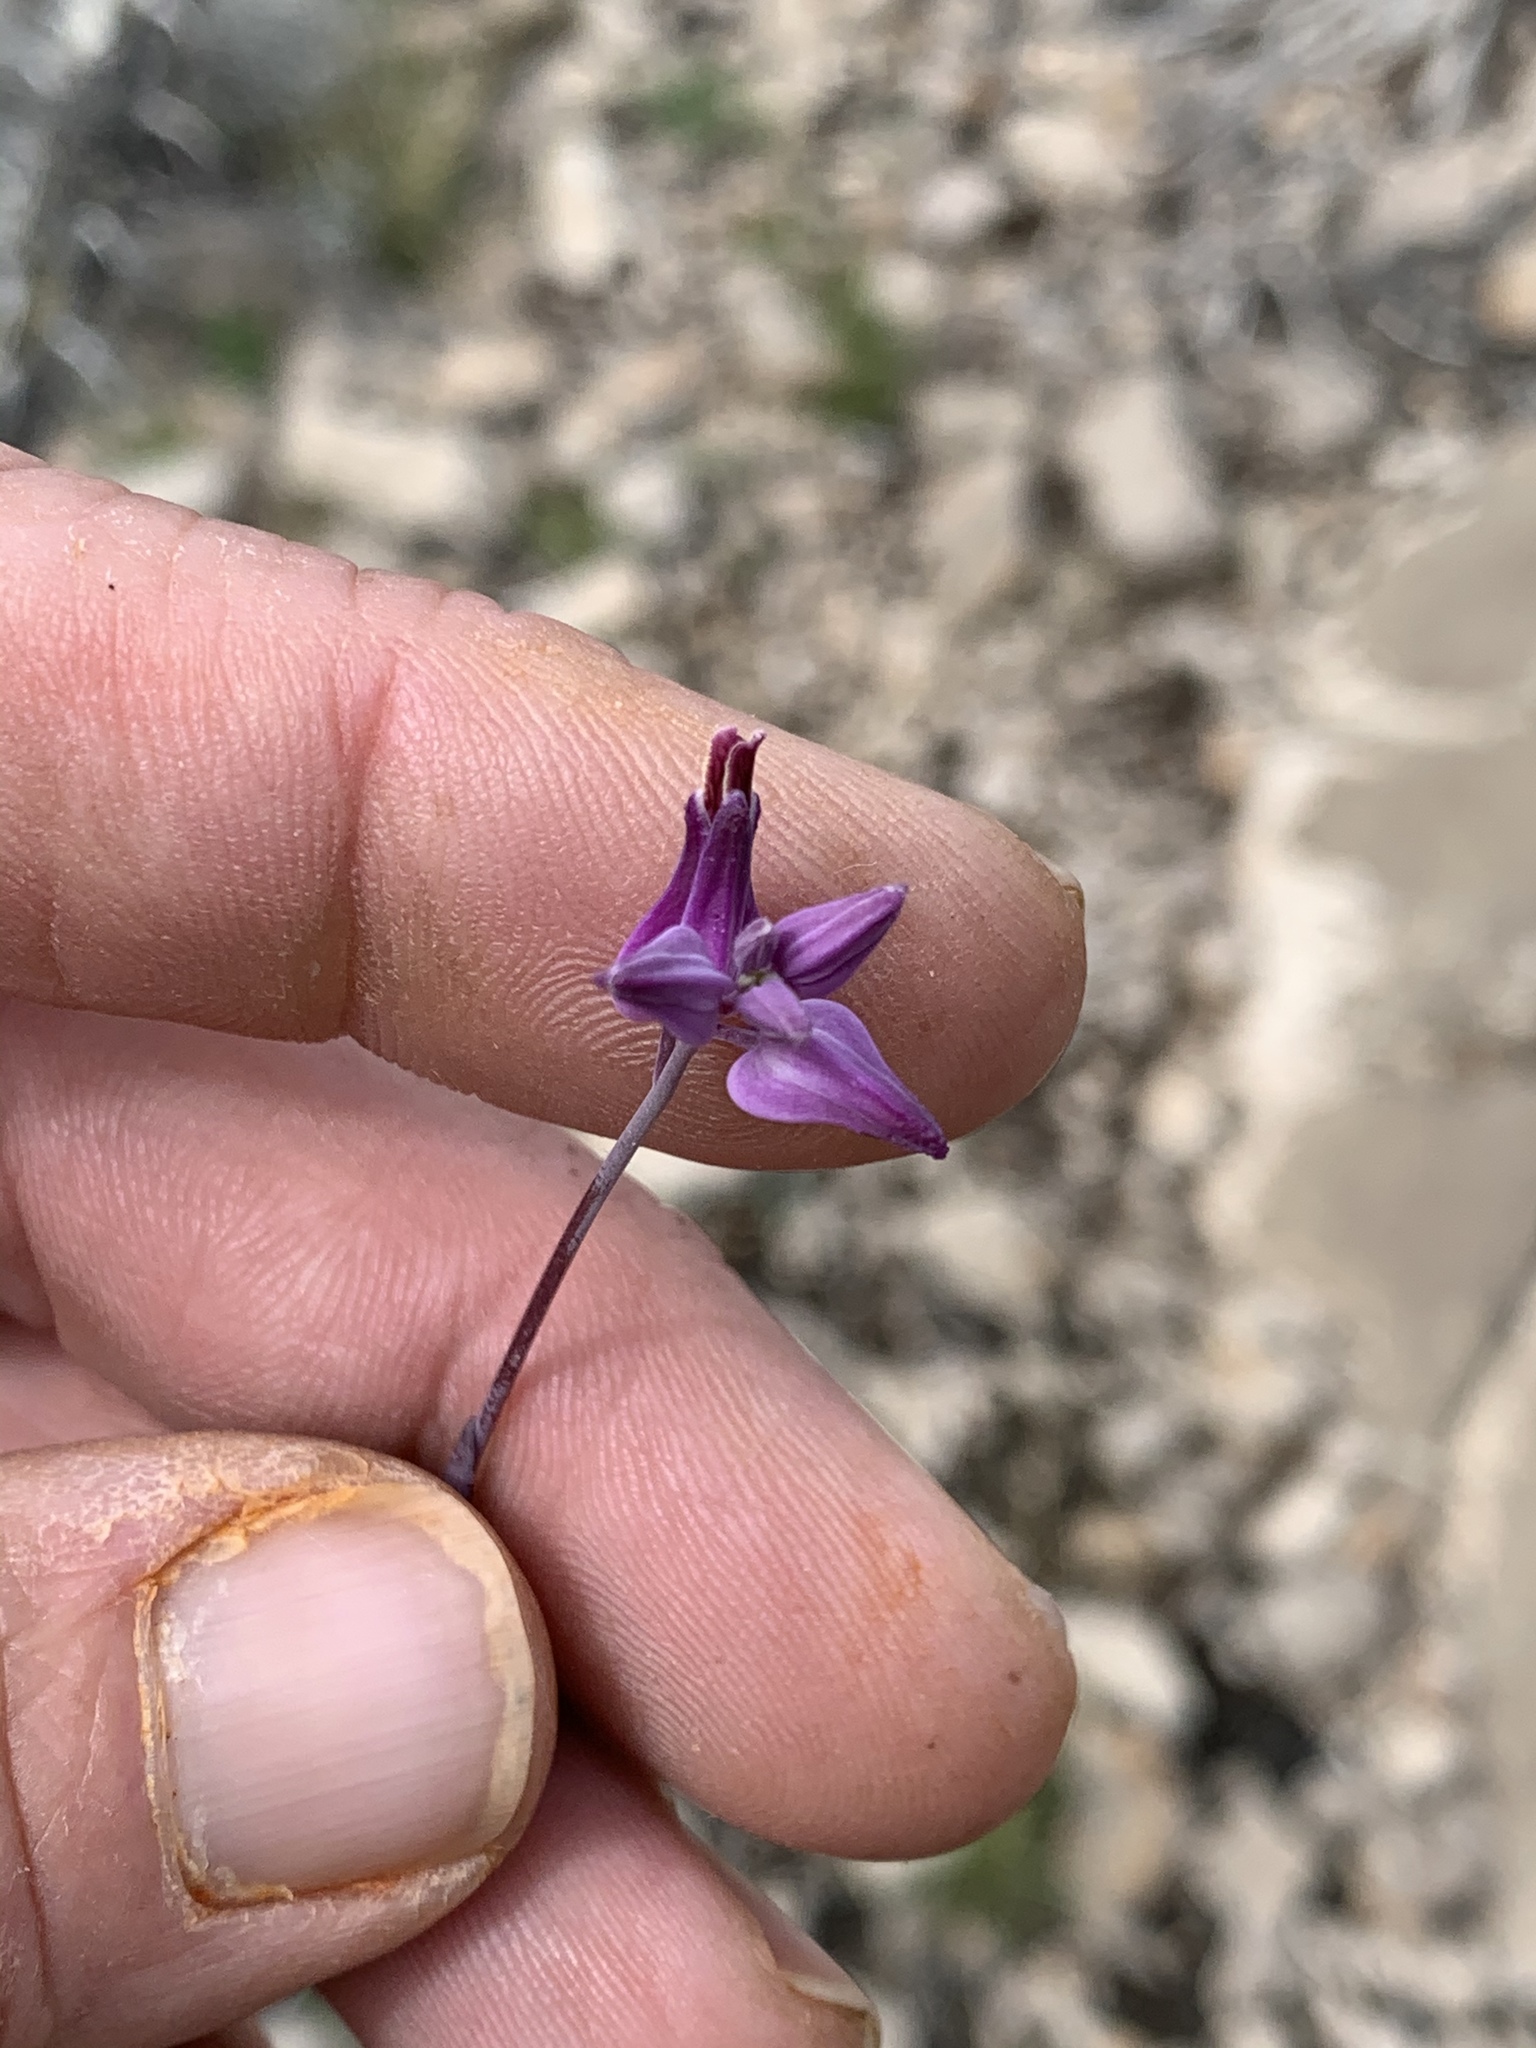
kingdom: Plantae
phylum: Tracheophyta
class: Magnoliopsida
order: Brassicales
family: Brassicaceae
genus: Streptanthus
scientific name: Streptanthus carinatus
